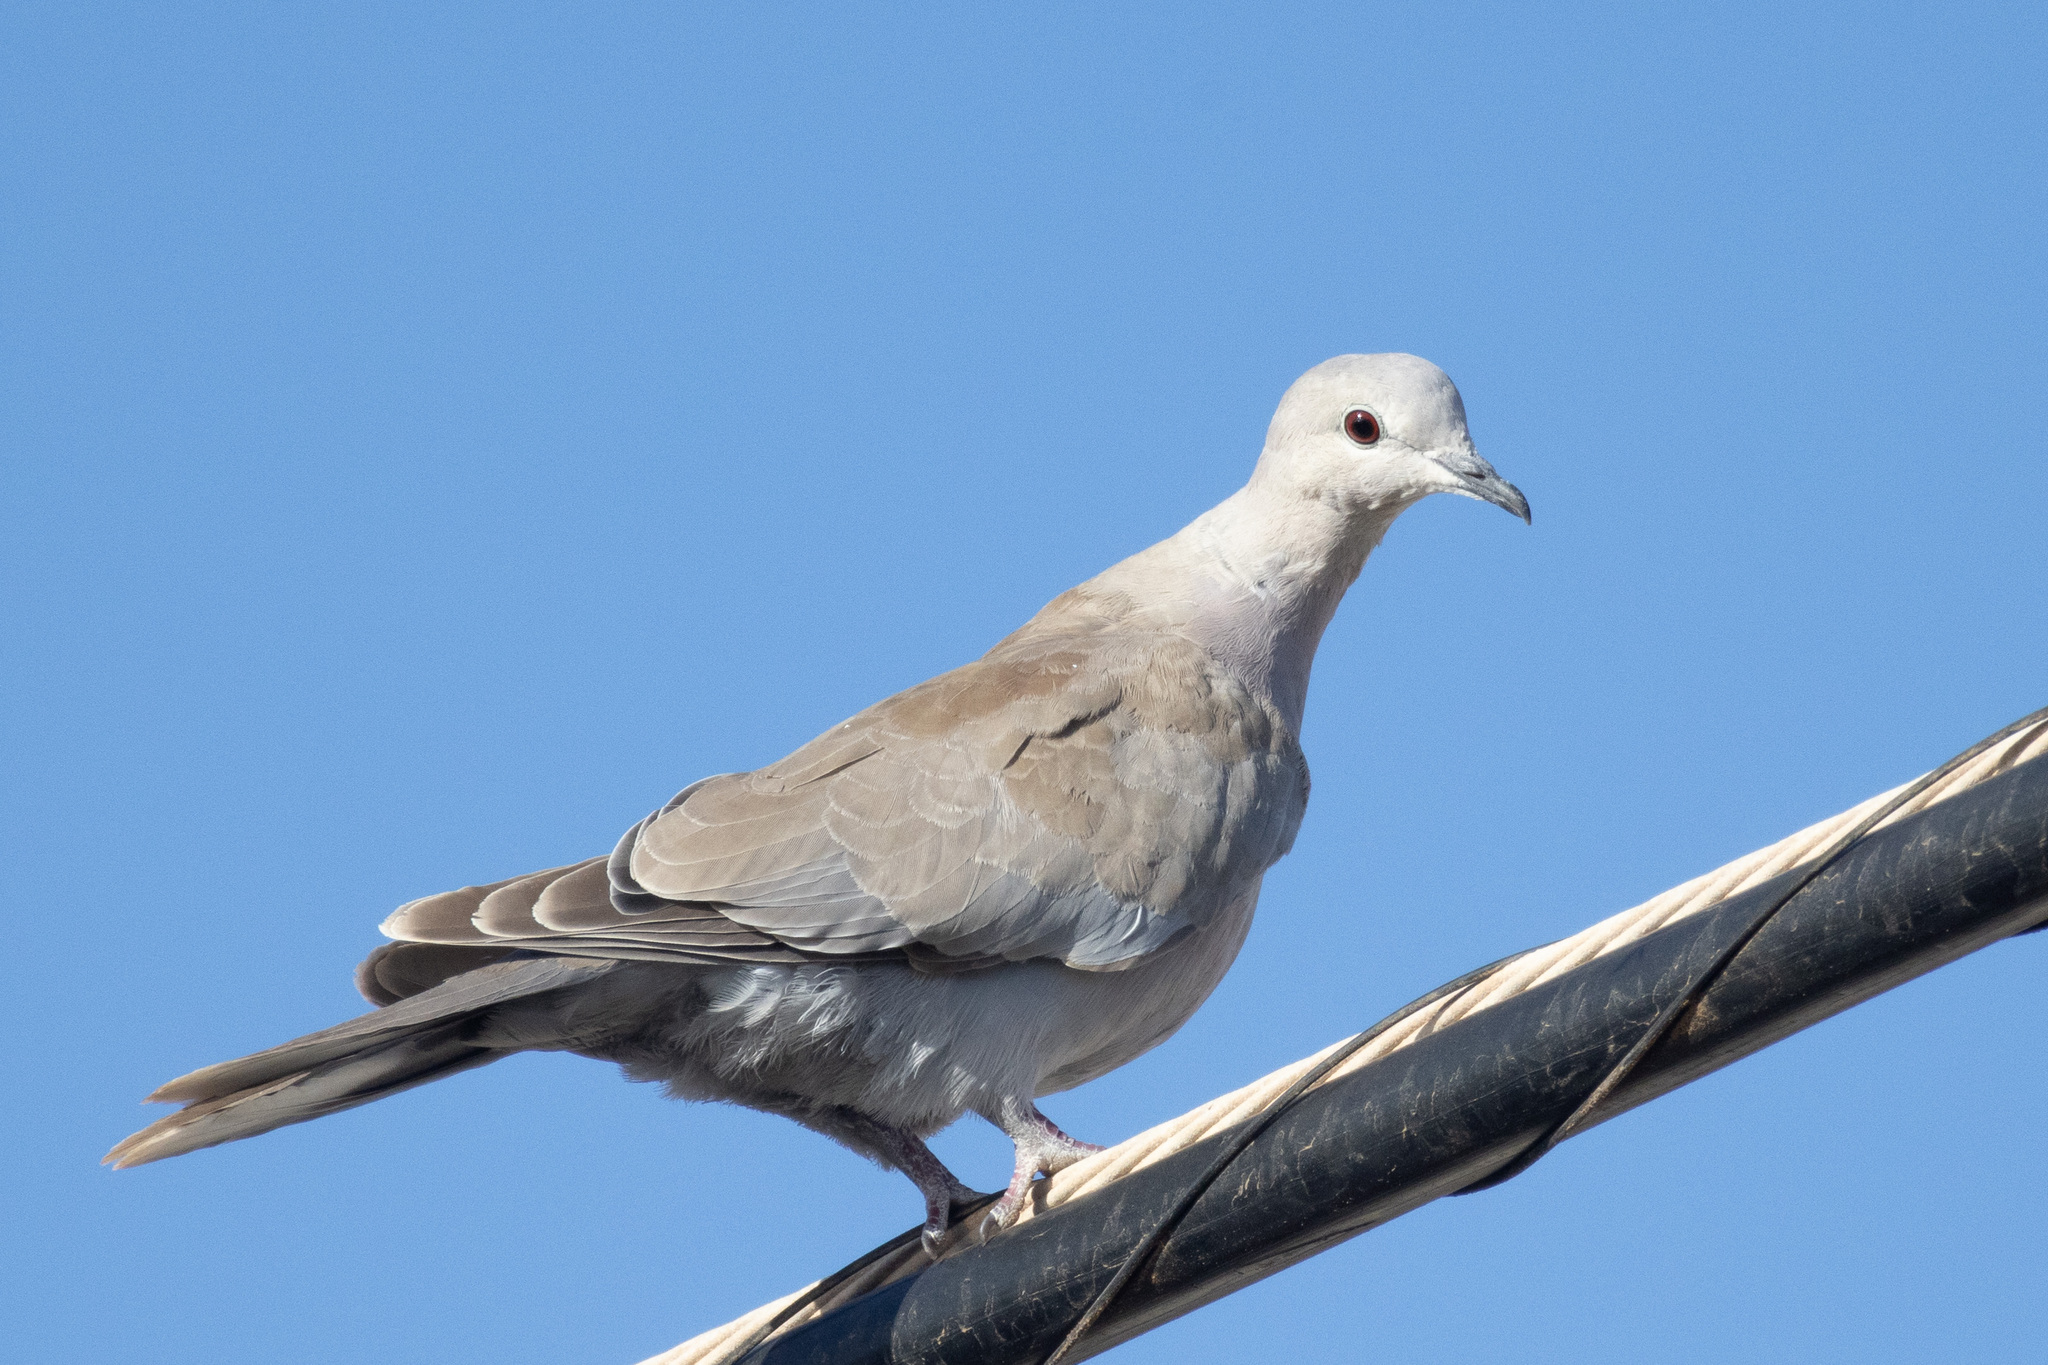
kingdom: Animalia
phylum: Chordata
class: Aves
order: Columbiformes
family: Columbidae
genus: Streptopelia
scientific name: Streptopelia decaocto
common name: Eurasian collared dove
